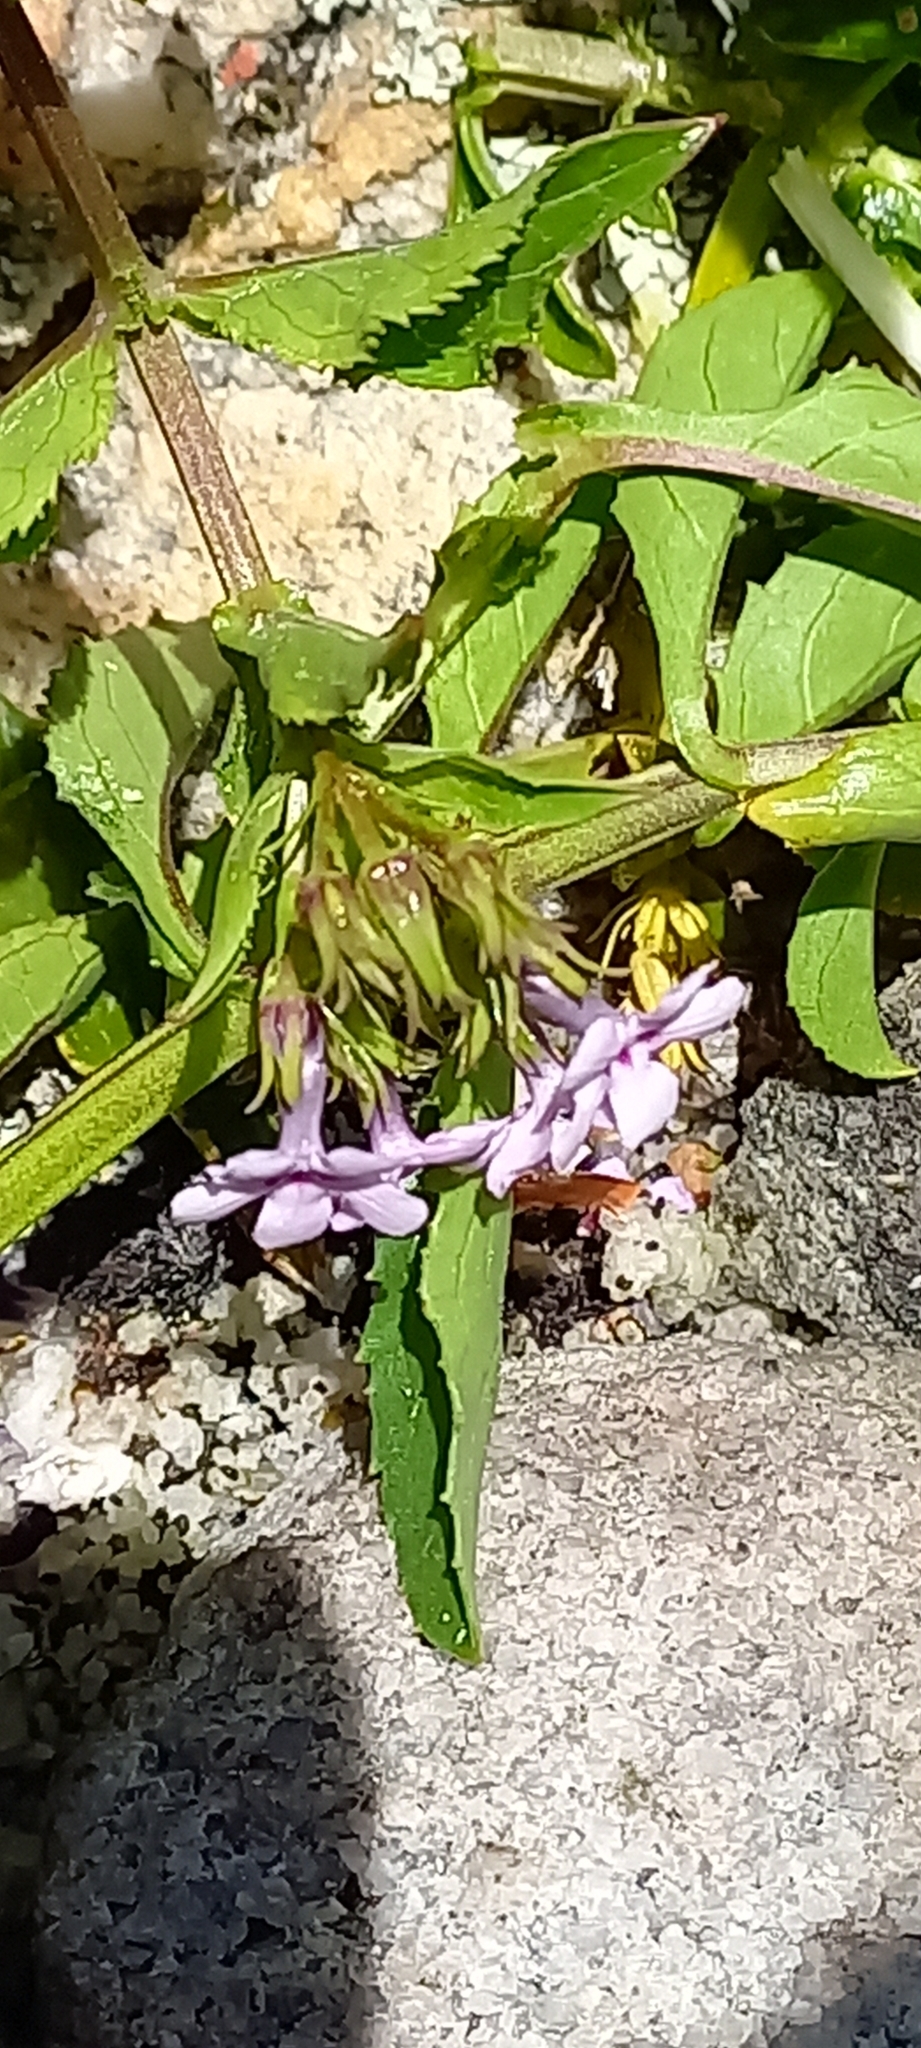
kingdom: Plantae
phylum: Tracheophyta
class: Magnoliopsida
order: Lamiales
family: Scrophulariaceae
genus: Teedia
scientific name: Teedia lucida
